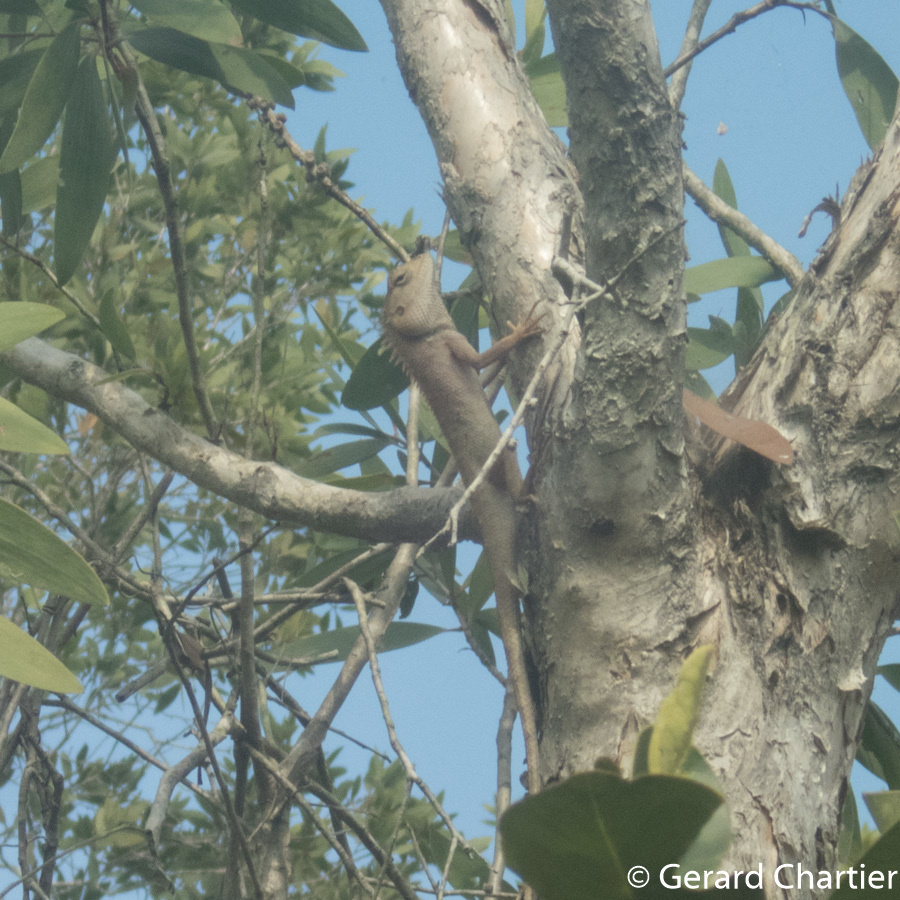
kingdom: Animalia
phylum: Chordata
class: Squamata
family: Agamidae
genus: Calotes
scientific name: Calotes versicolor
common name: Oriental garden lizard
